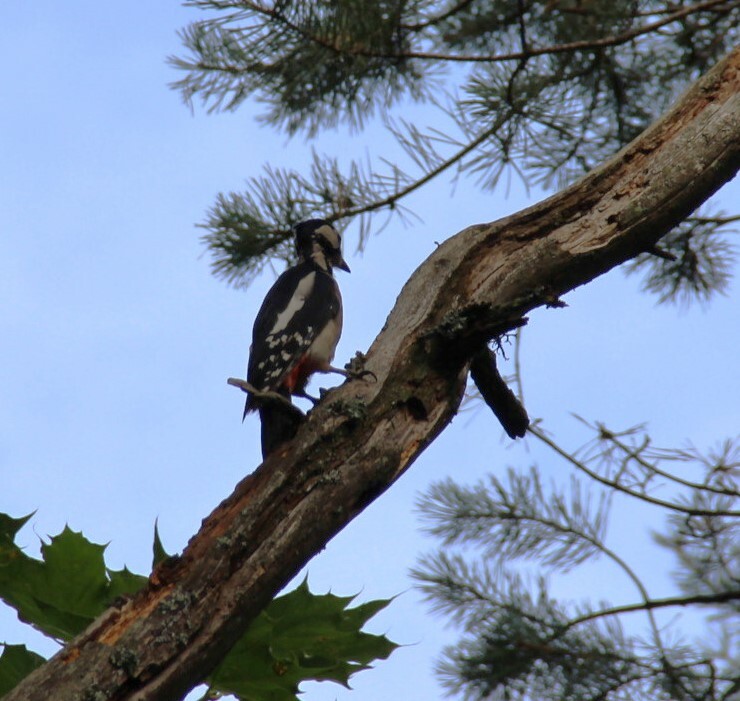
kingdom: Animalia
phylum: Chordata
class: Aves
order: Piciformes
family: Picidae
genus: Dendrocopos
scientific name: Dendrocopos major
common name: Great spotted woodpecker
